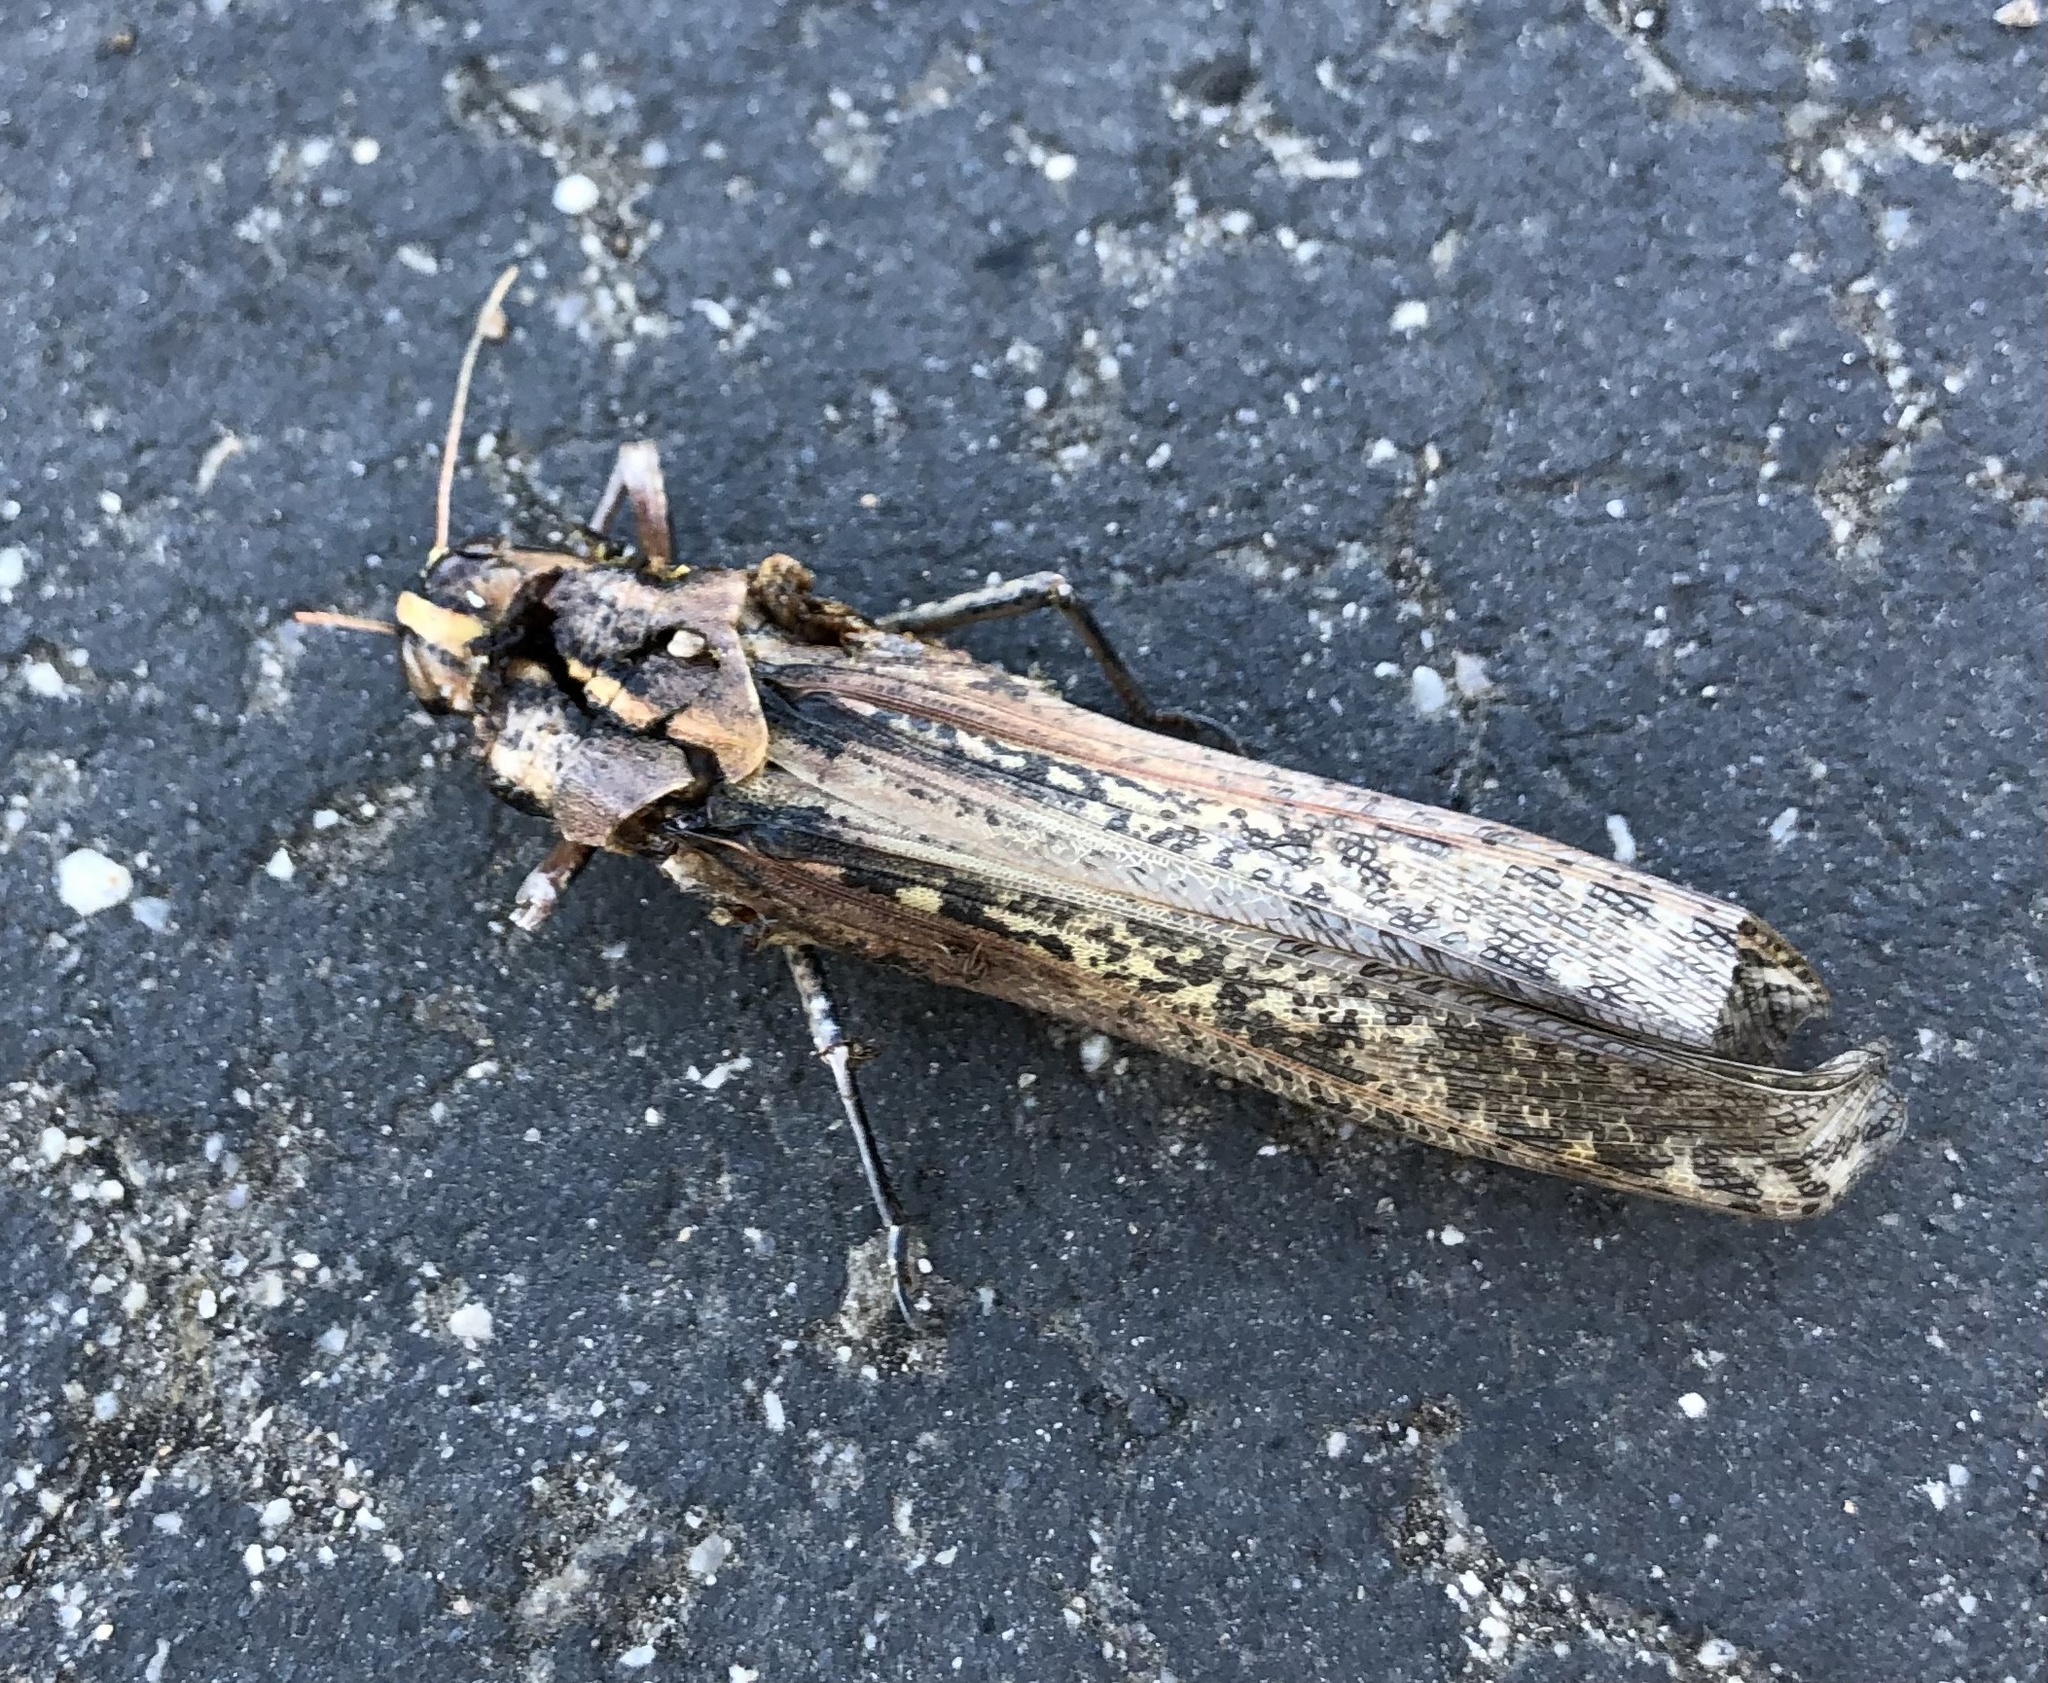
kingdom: Animalia
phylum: Arthropoda
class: Insecta
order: Orthoptera
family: Acrididae
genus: Schistocerca
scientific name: Schistocerca nitens
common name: Vagrant grasshopper
